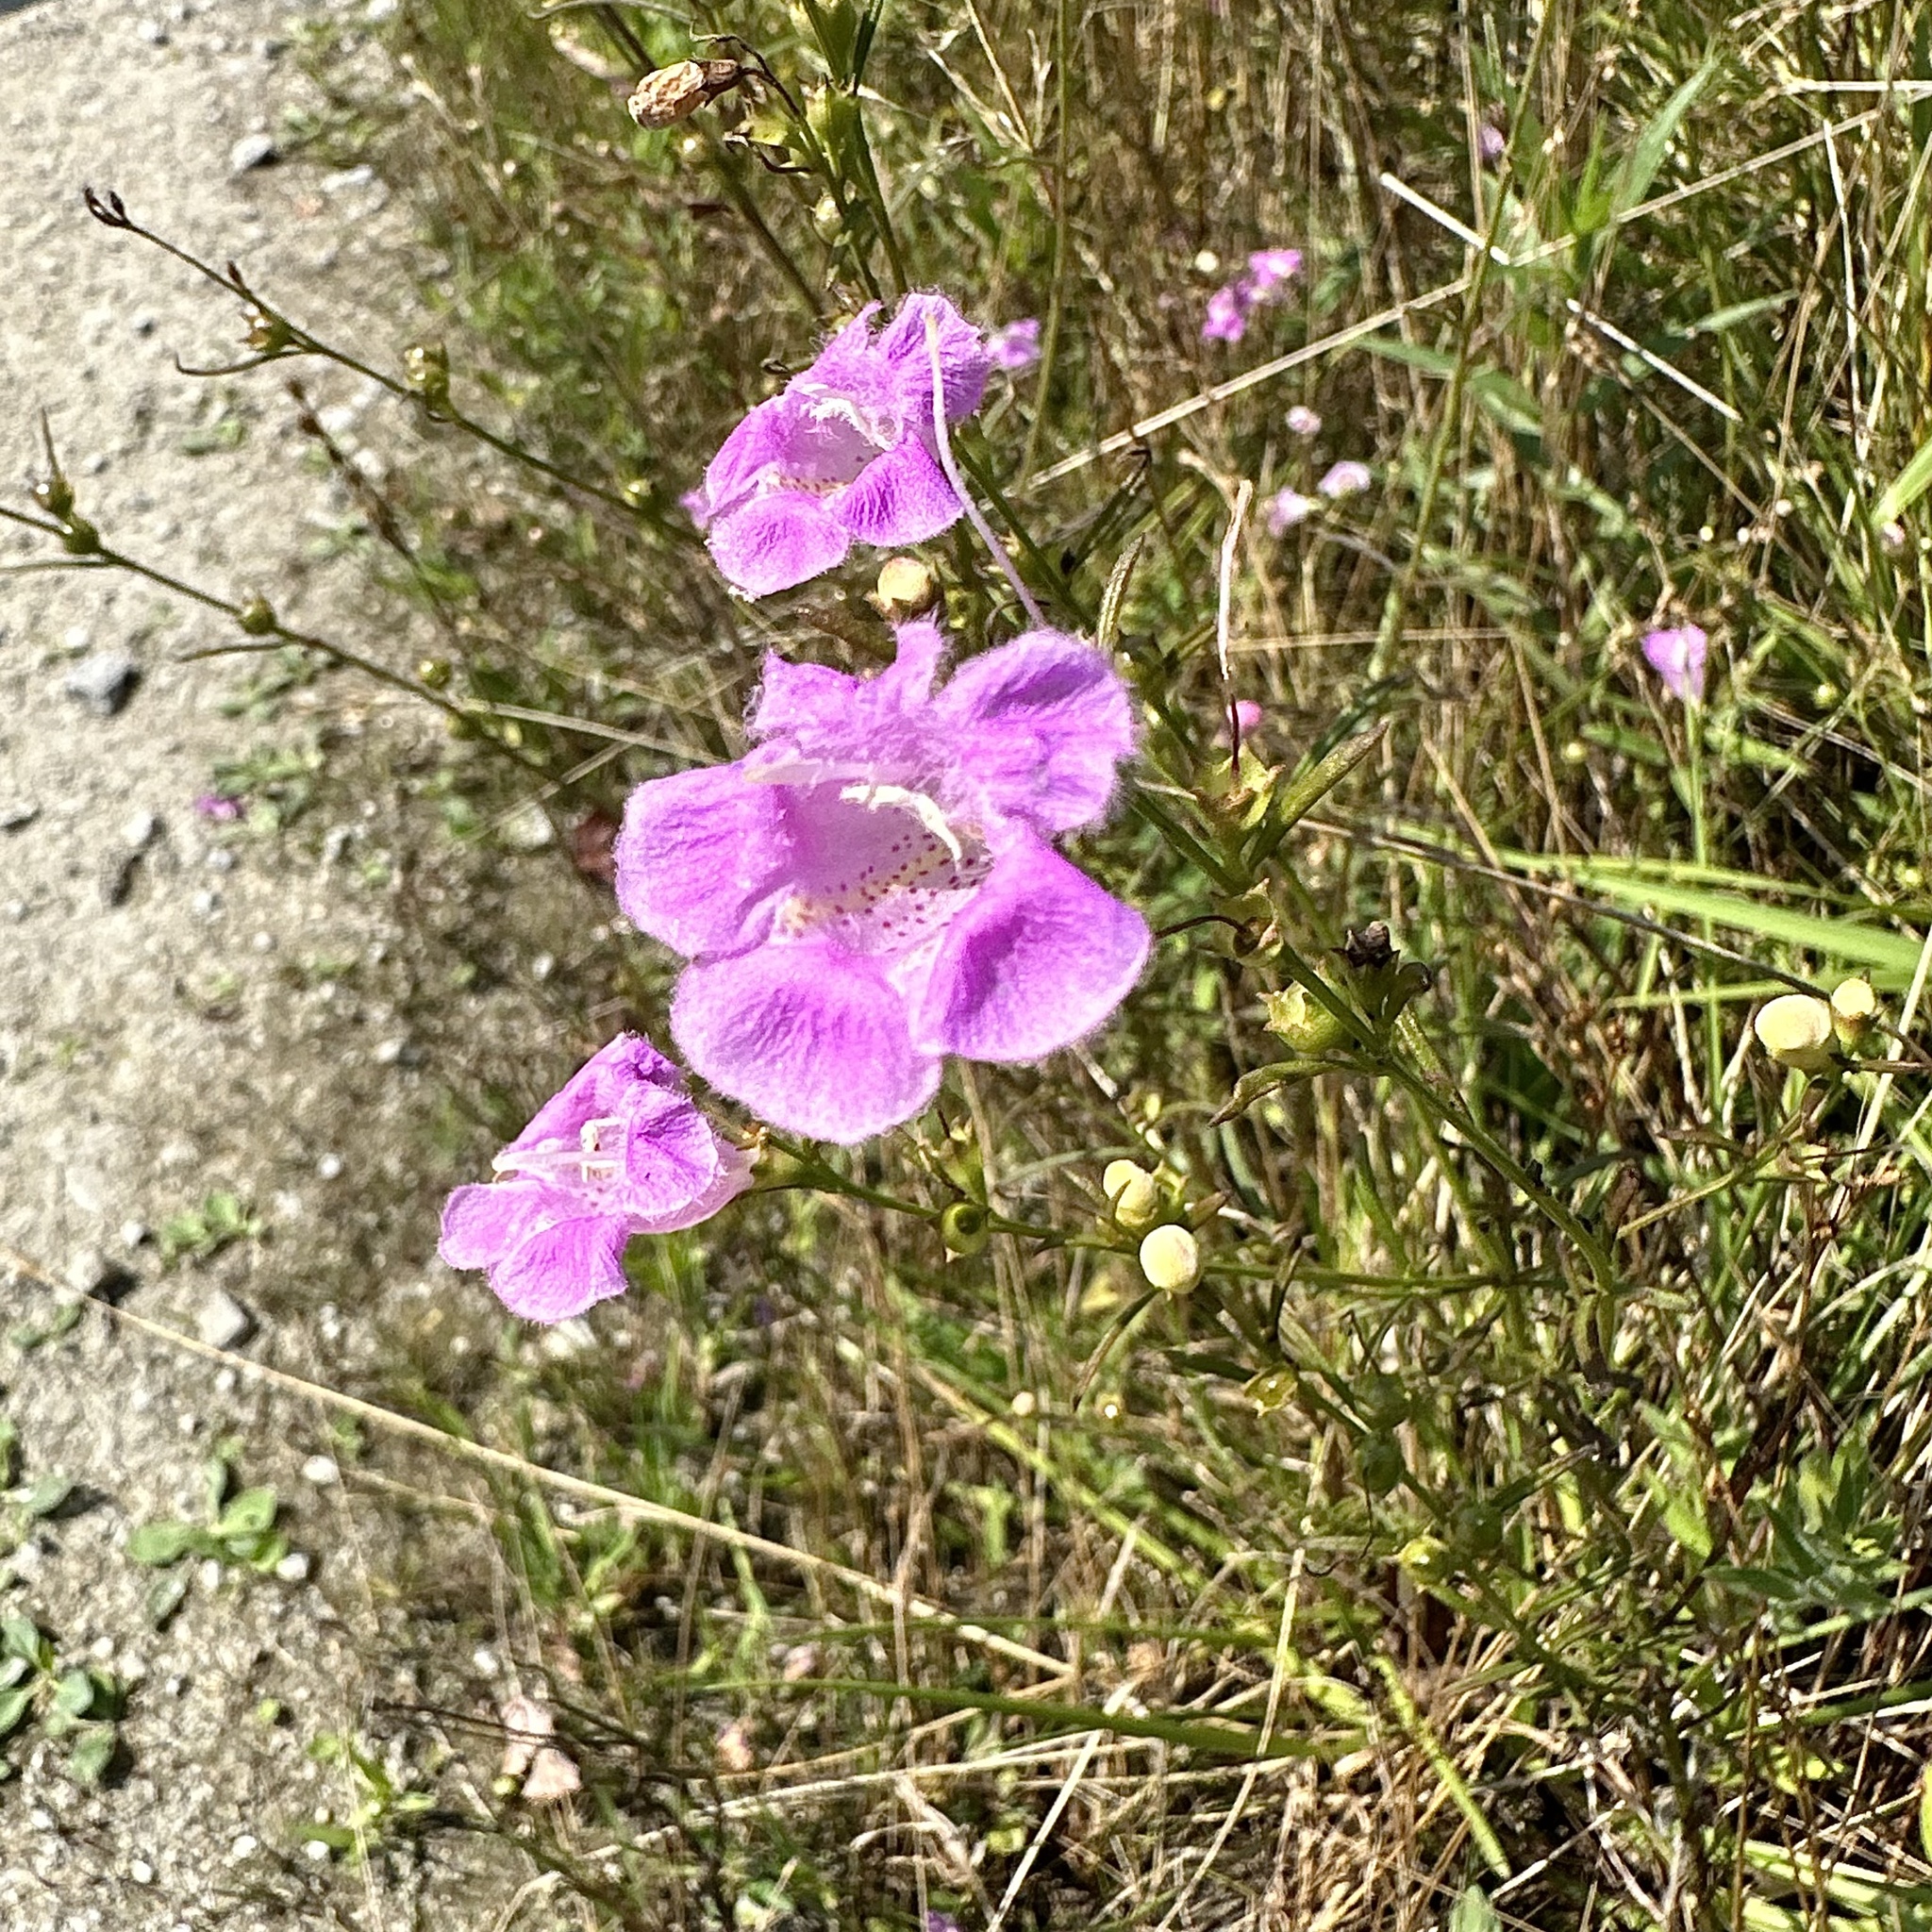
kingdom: Plantae
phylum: Tracheophyta
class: Magnoliopsida
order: Lamiales
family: Orobanchaceae
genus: Agalinis
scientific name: Agalinis purpurea
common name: Purple false foxglove
